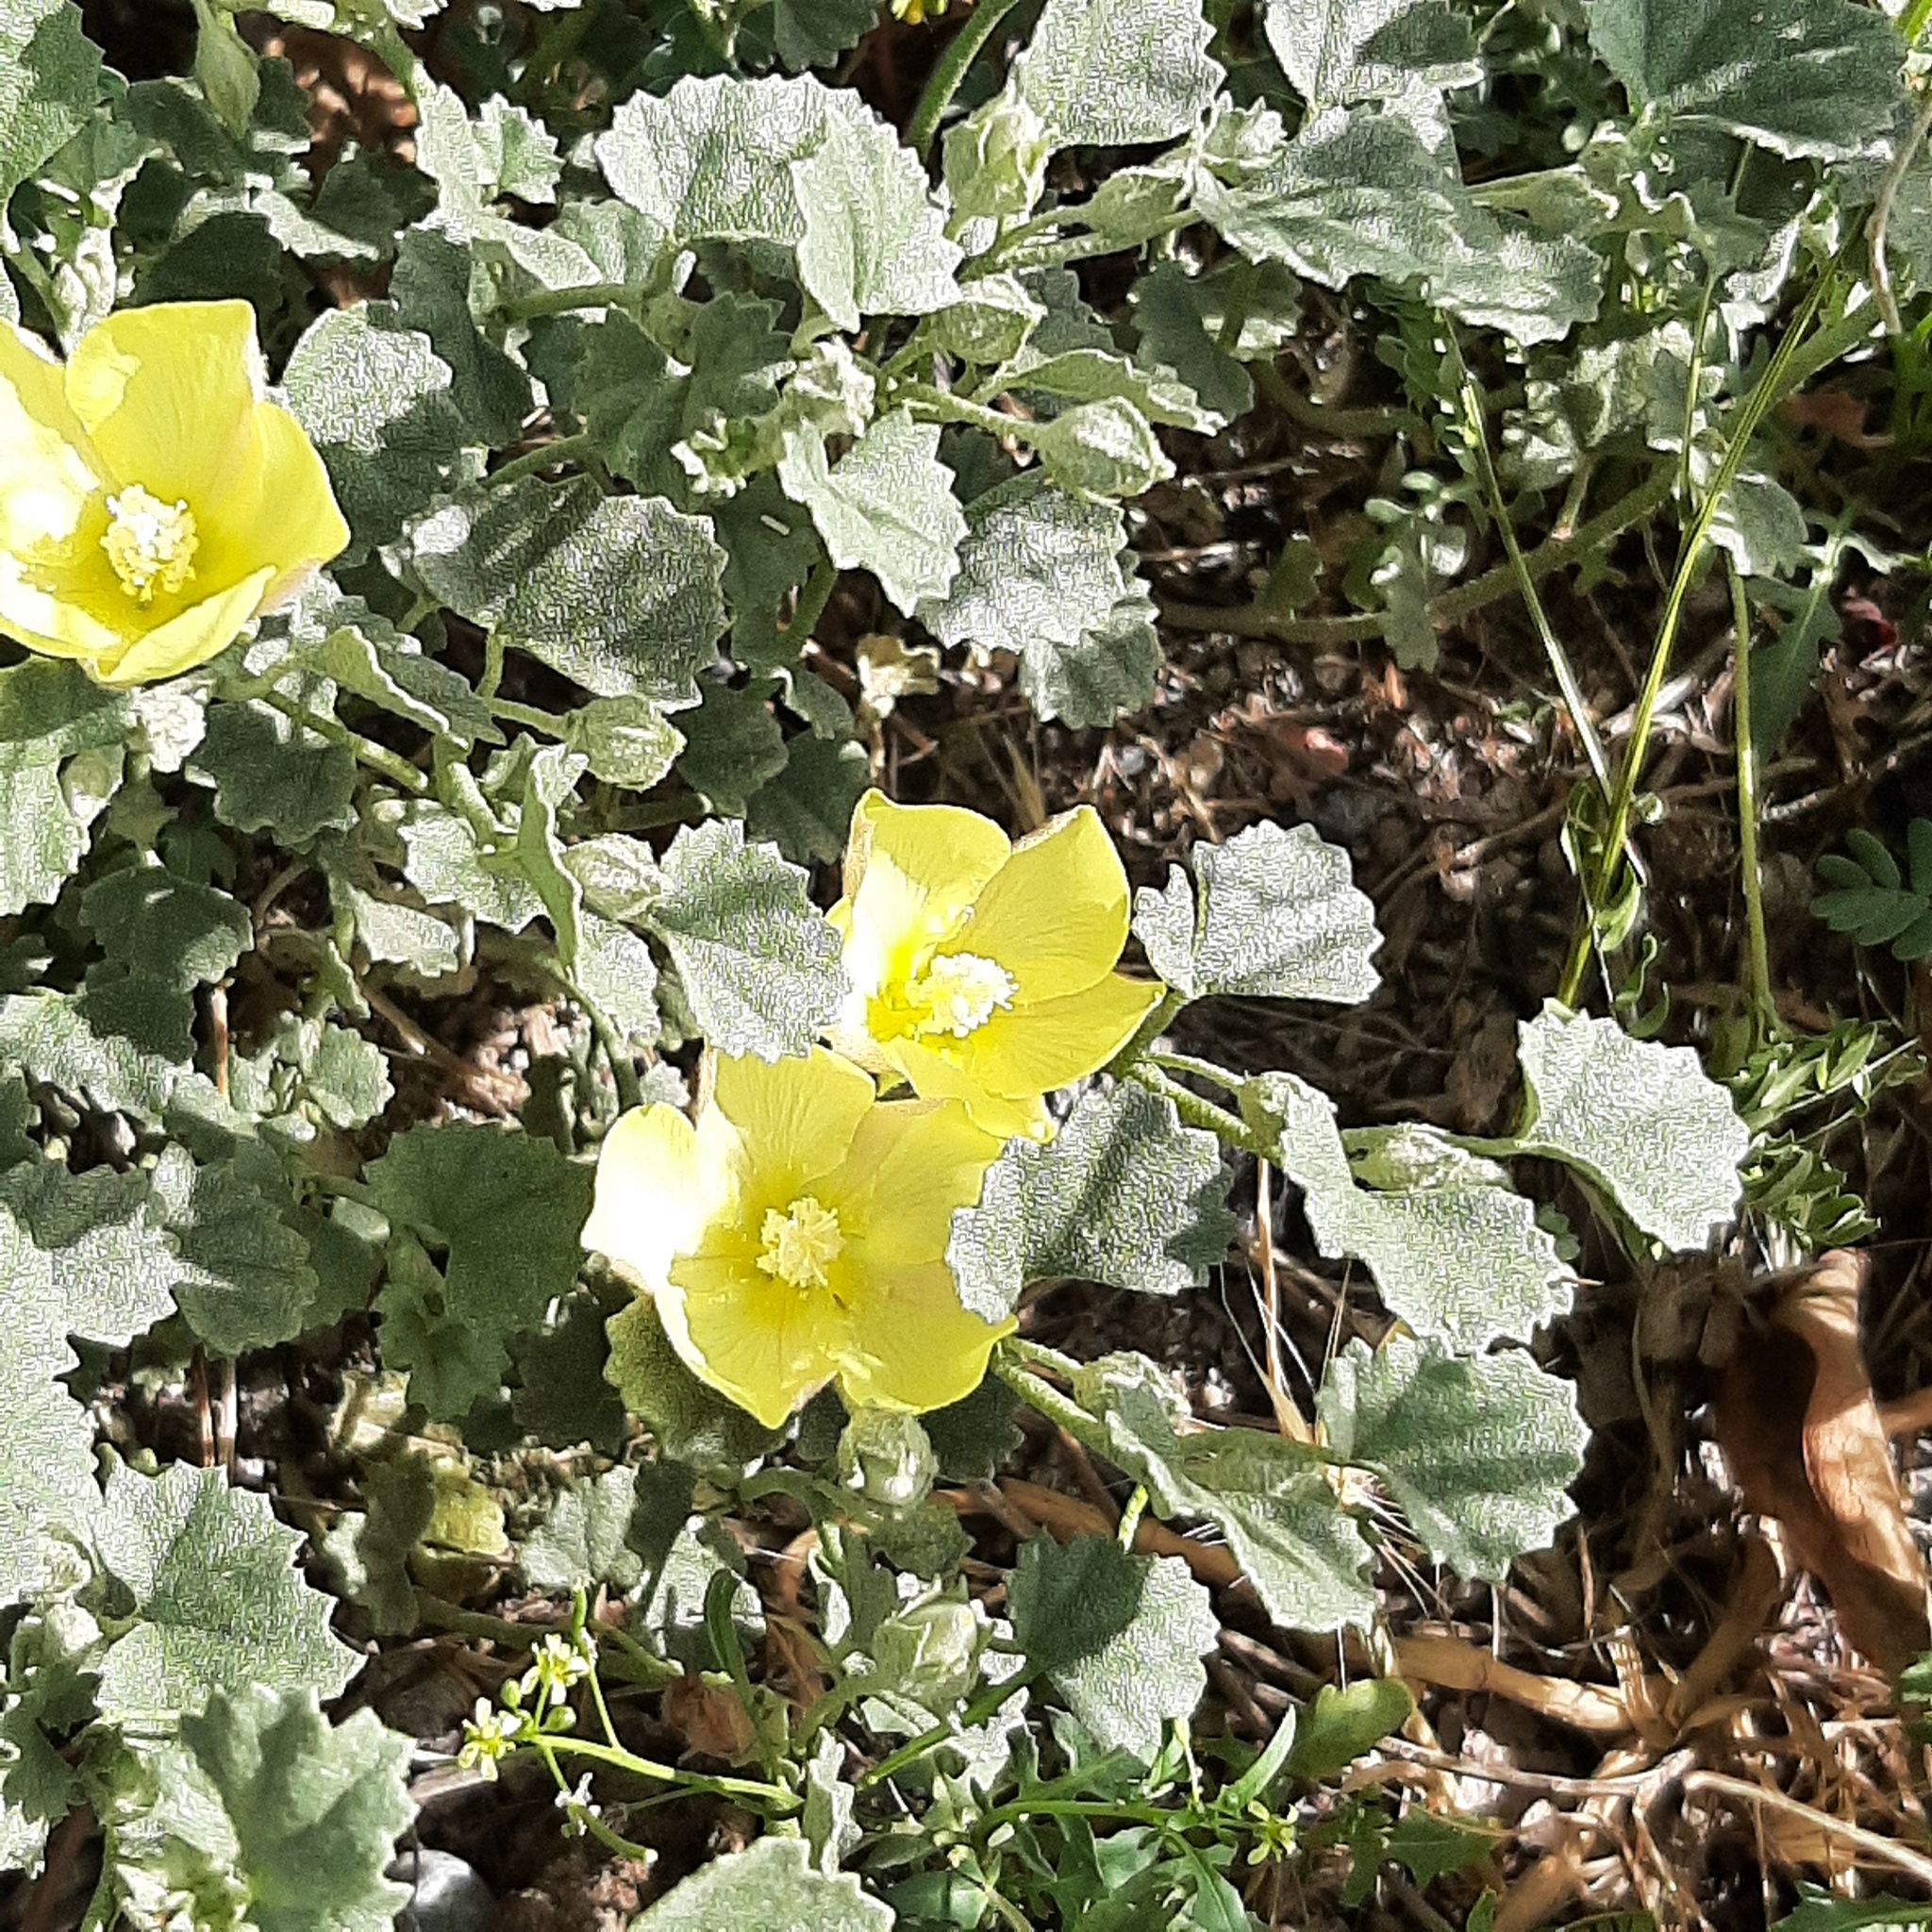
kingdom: Plantae
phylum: Tracheophyta
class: Magnoliopsida
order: Malvales
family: Malvaceae
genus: Malvella
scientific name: Malvella leprosa
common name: Alkali-mallow
